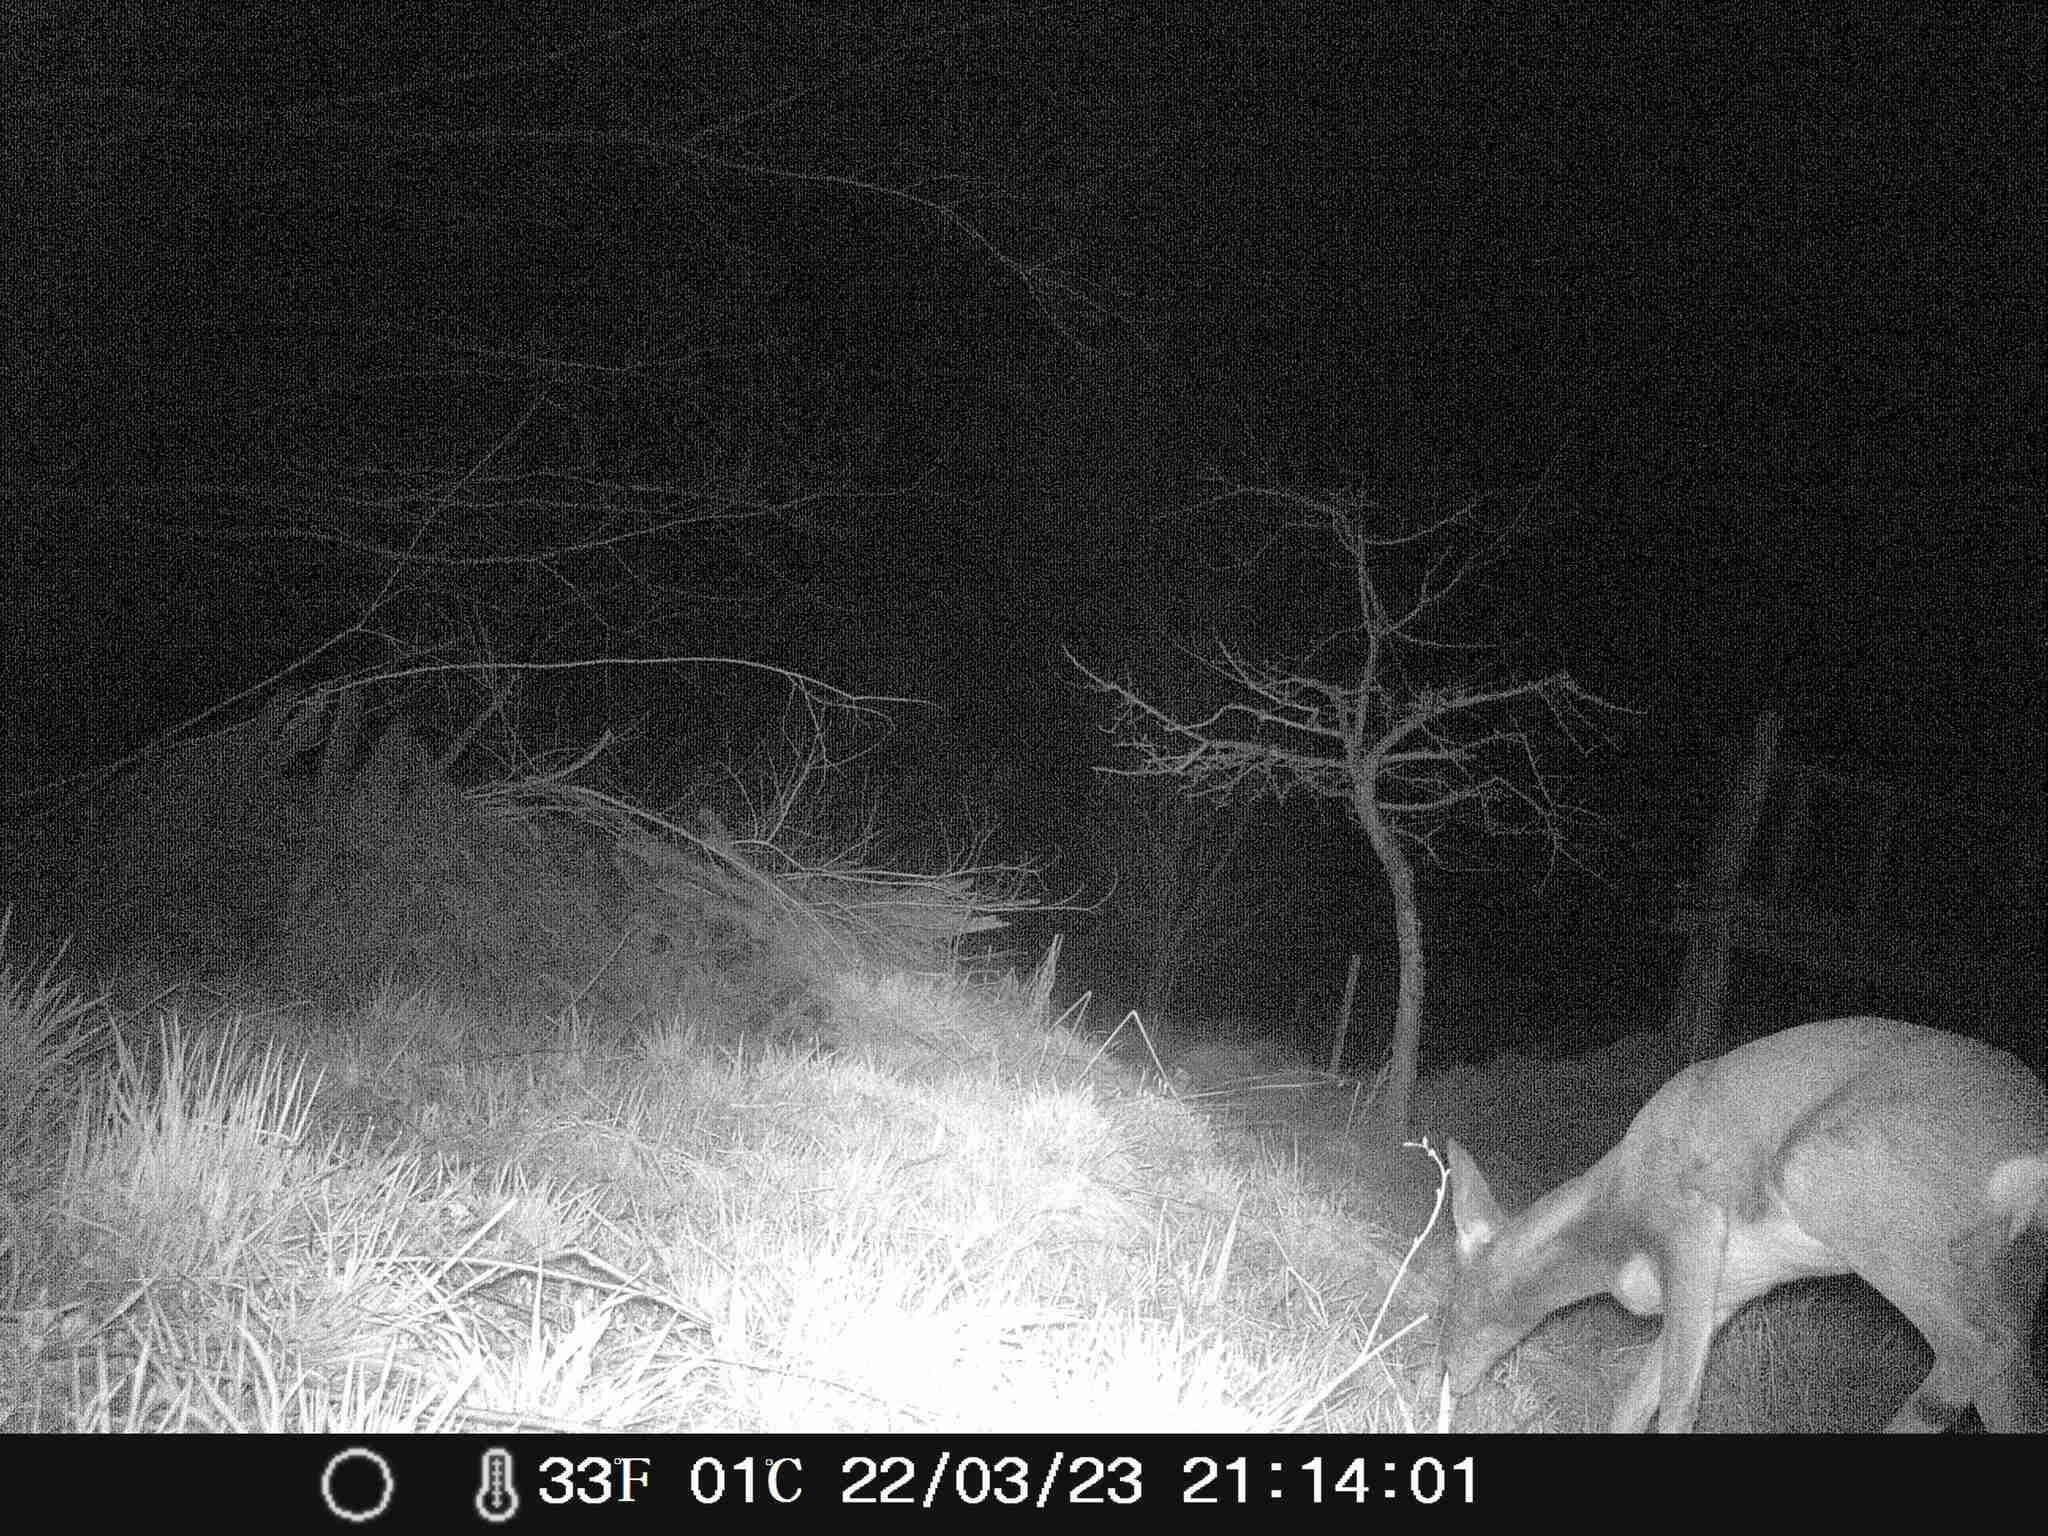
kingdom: Animalia
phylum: Chordata
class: Mammalia
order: Artiodactyla
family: Cervidae
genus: Capreolus
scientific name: Capreolus capreolus
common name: Western roe deer
